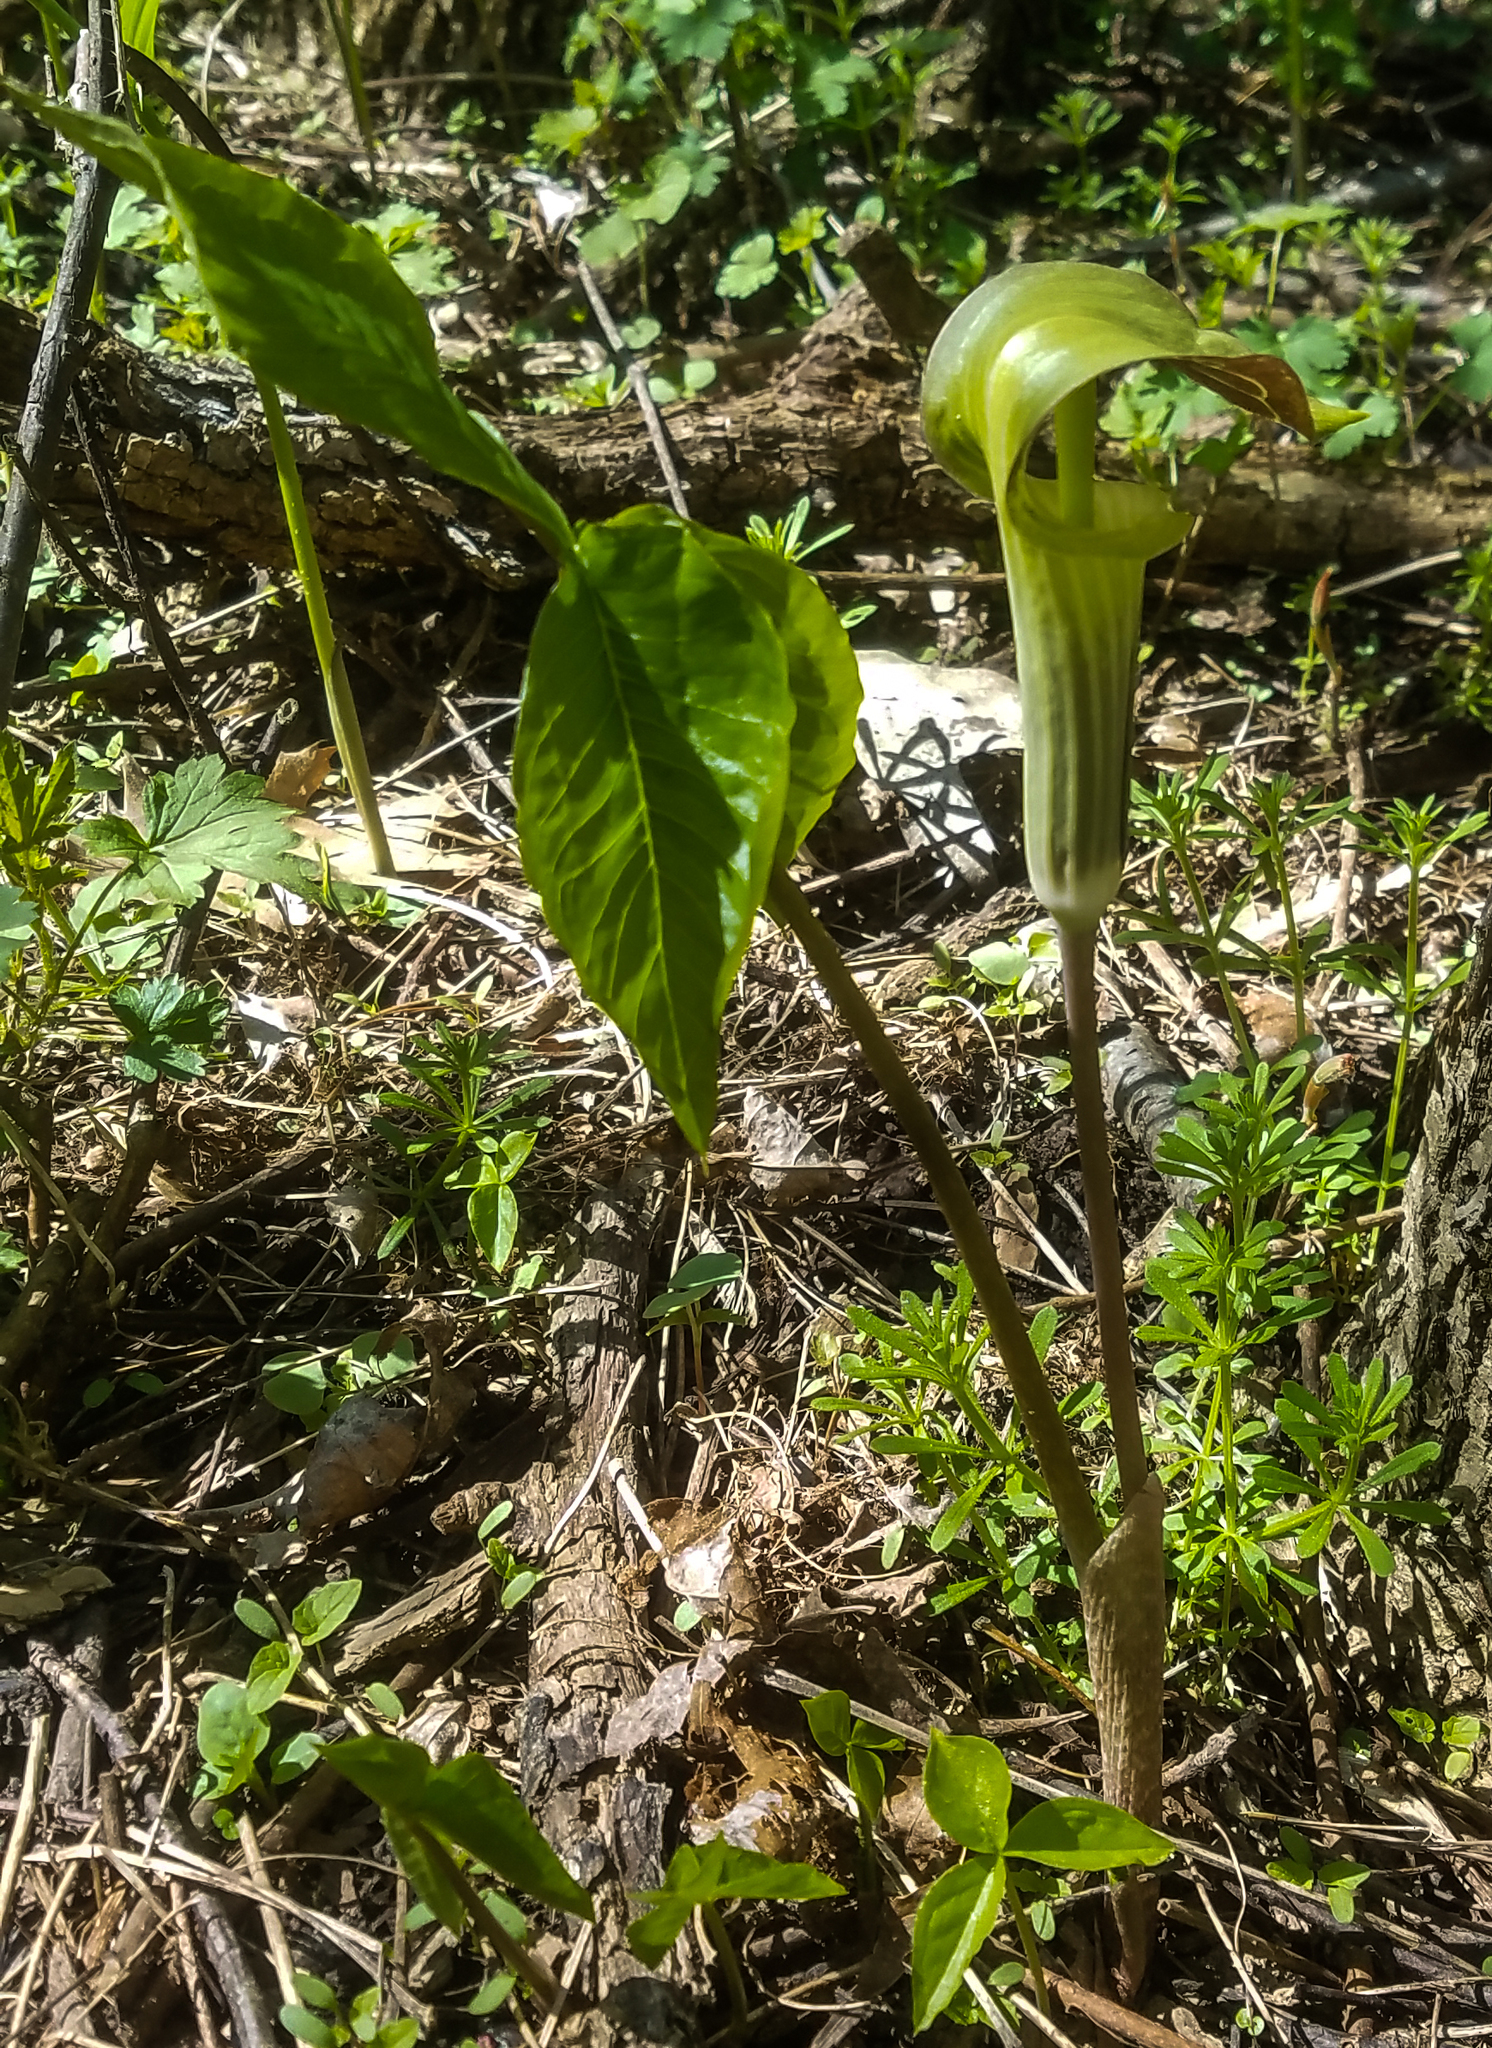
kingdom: Plantae
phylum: Tracheophyta
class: Liliopsida
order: Alismatales
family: Araceae
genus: Arisaema
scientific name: Arisaema triphyllum
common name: Jack-in-the-pulpit
